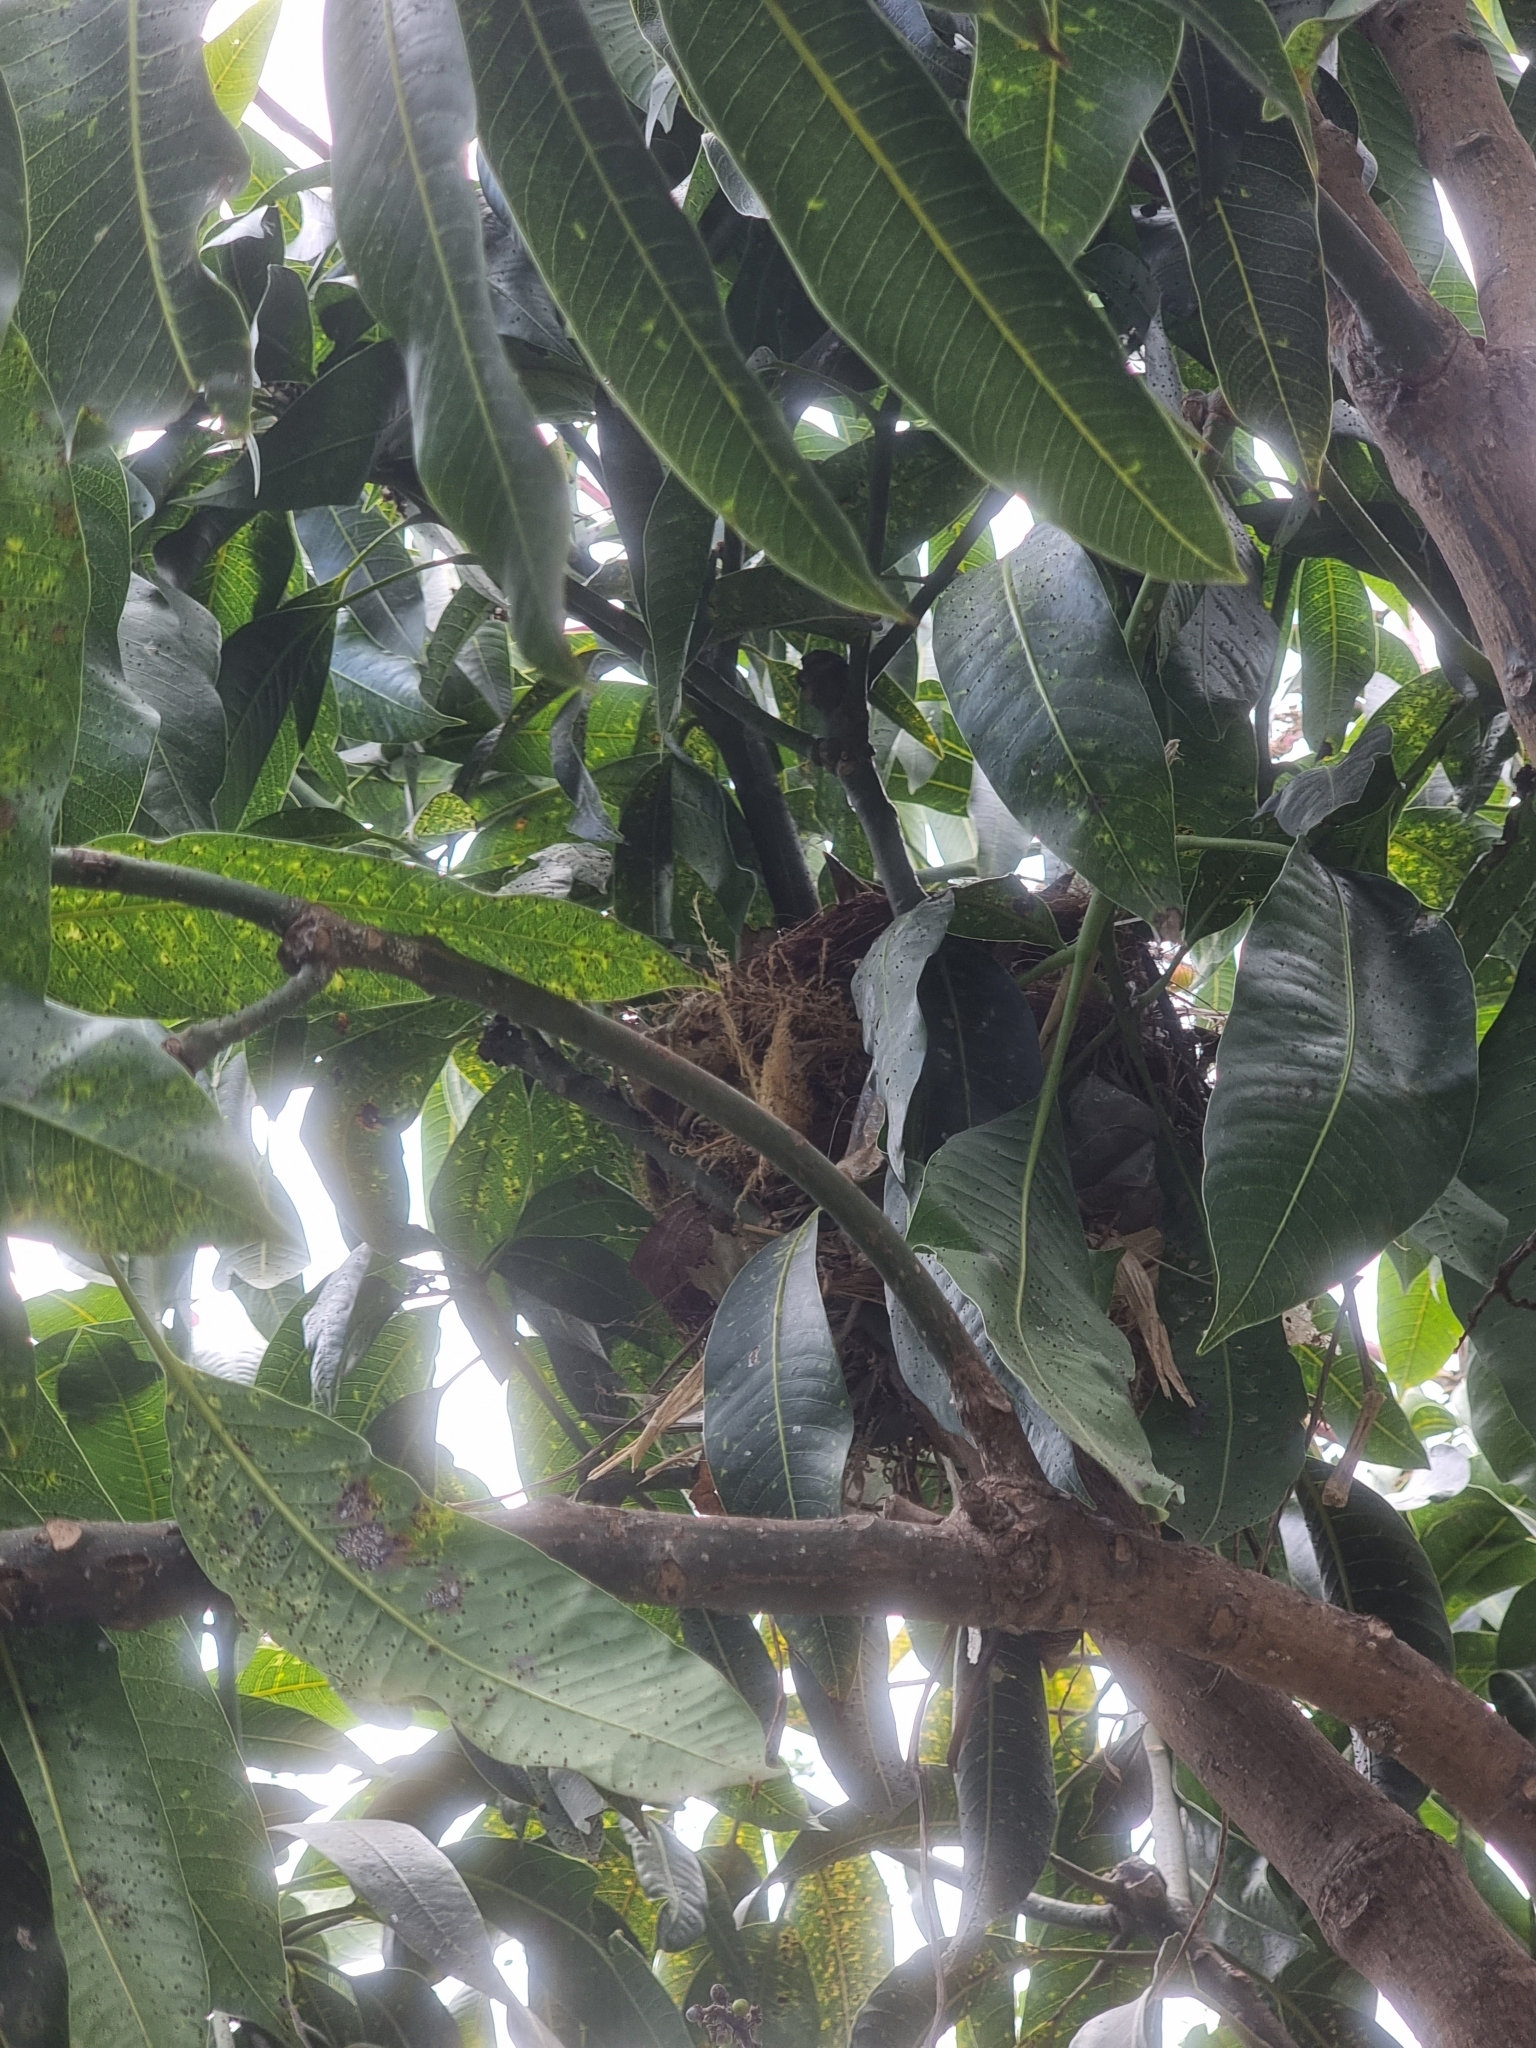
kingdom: Animalia
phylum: Chordata
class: Aves
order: Passeriformes
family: Turdidae
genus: Turdus
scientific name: Turdus merula
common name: Common blackbird
